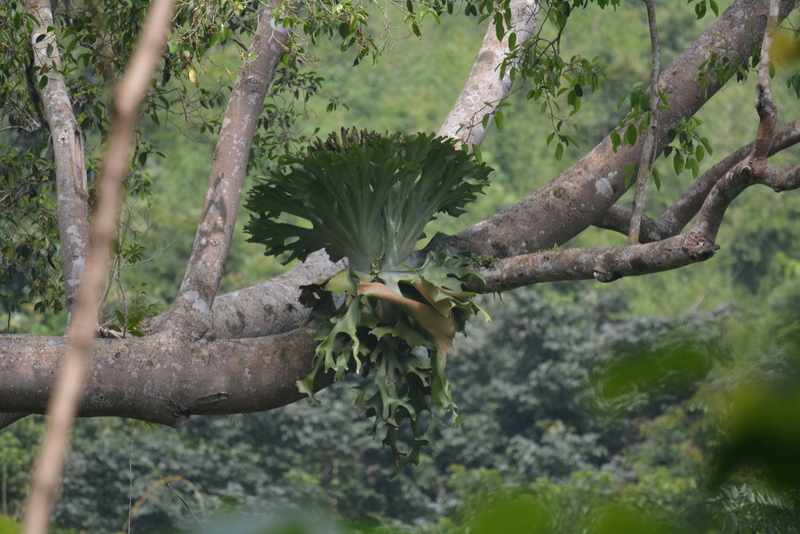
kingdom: Plantae
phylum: Tracheophyta
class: Polypodiopsida
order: Polypodiales
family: Polypodiaceae
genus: Platycerium
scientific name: Platycerium holttumii
